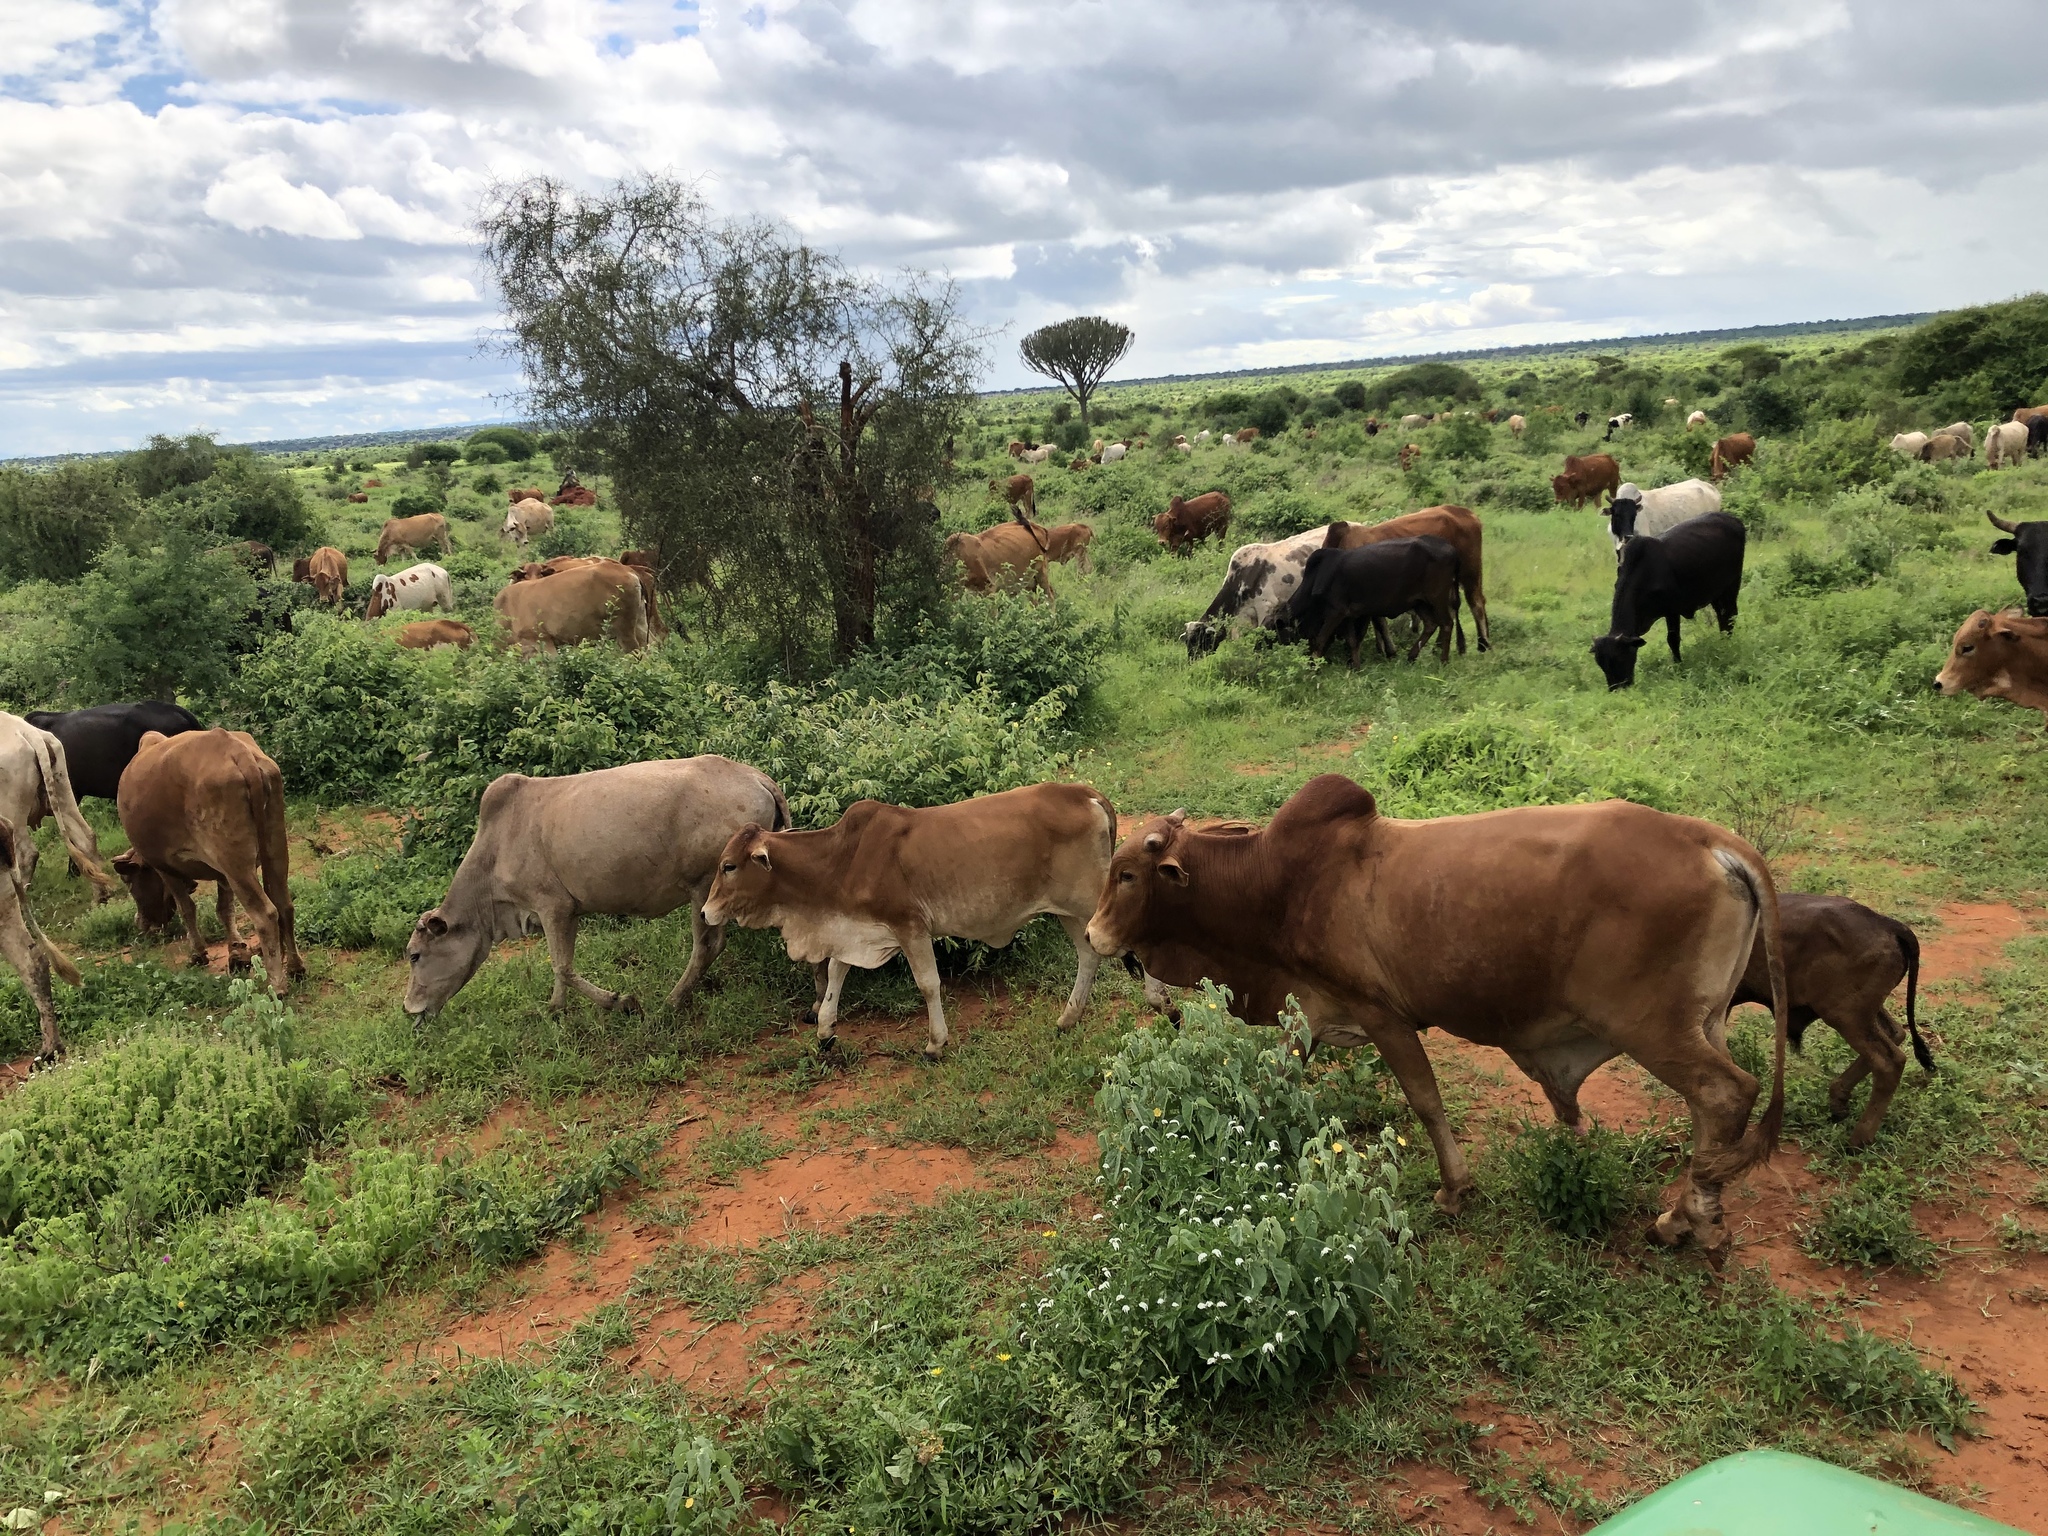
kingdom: Animalia
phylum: Chordata
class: Mammalia
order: Artiodactyla
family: Bovidae
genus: Bos
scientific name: Bos taurus
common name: Domesticated cattle
